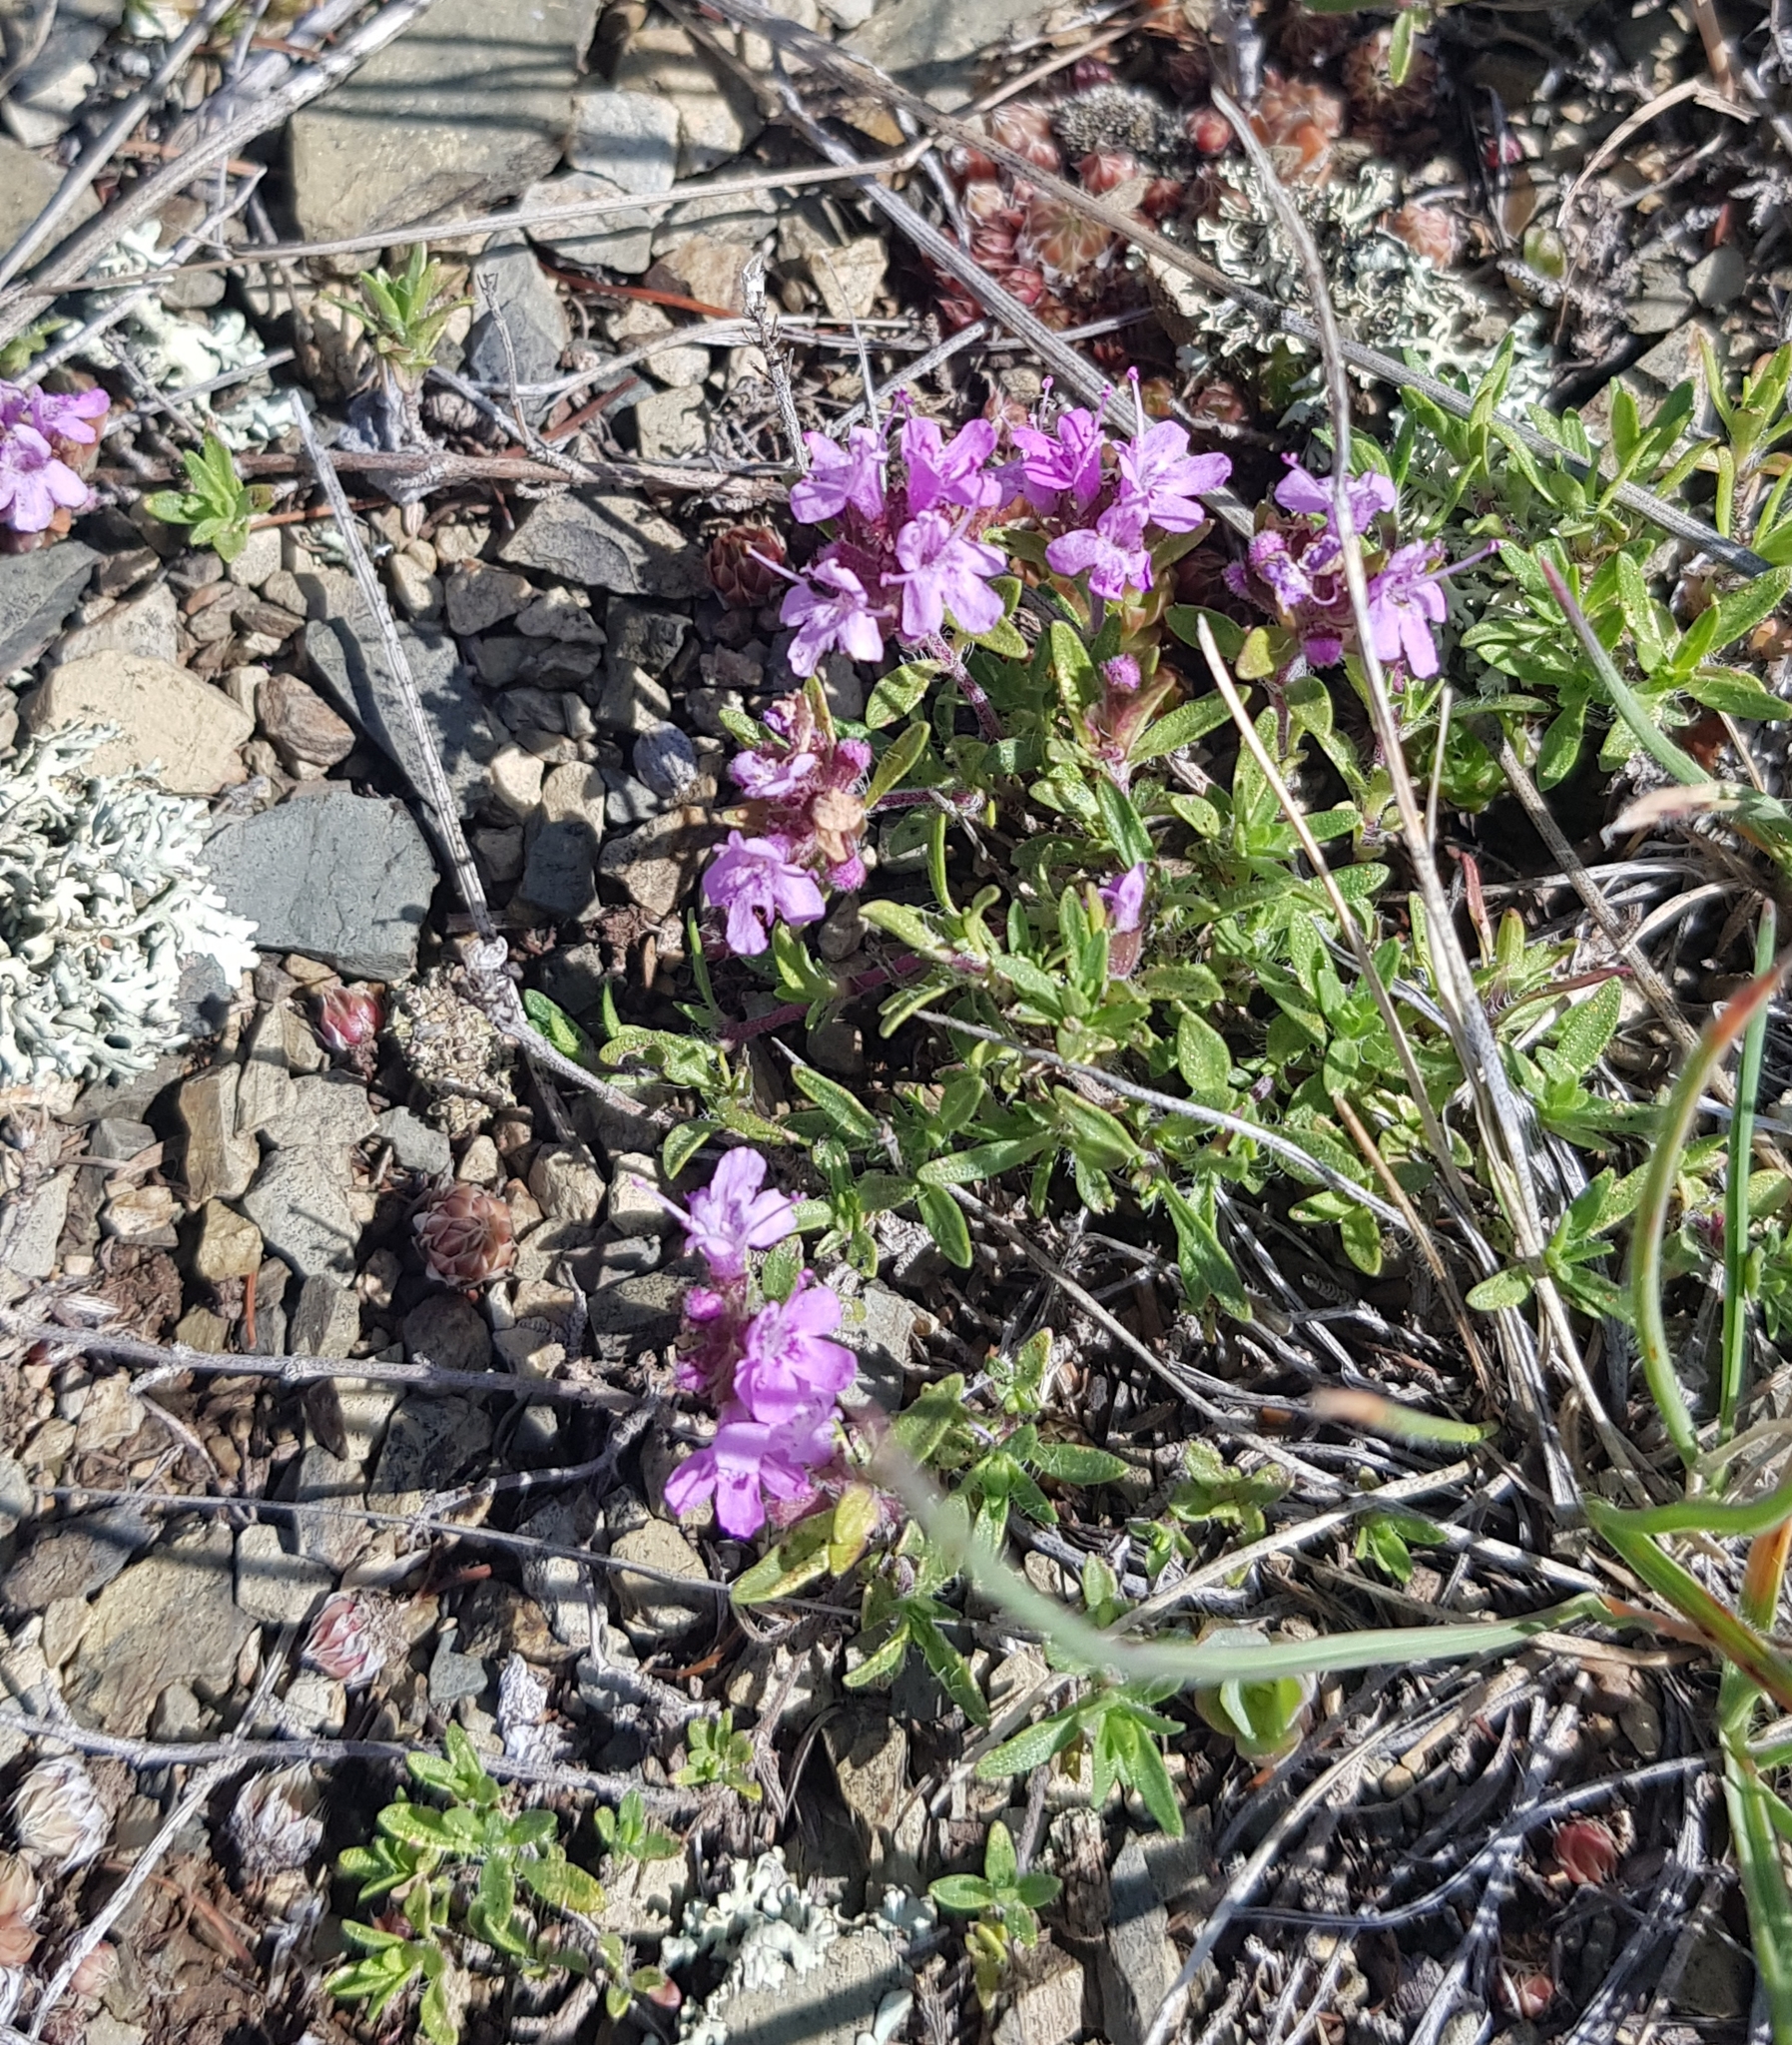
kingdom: Plantae
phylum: Tracheophyta
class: Magnoliopsida
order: Lamiales
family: Lamiaceae
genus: Thymus
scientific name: Thymus baicalensis
